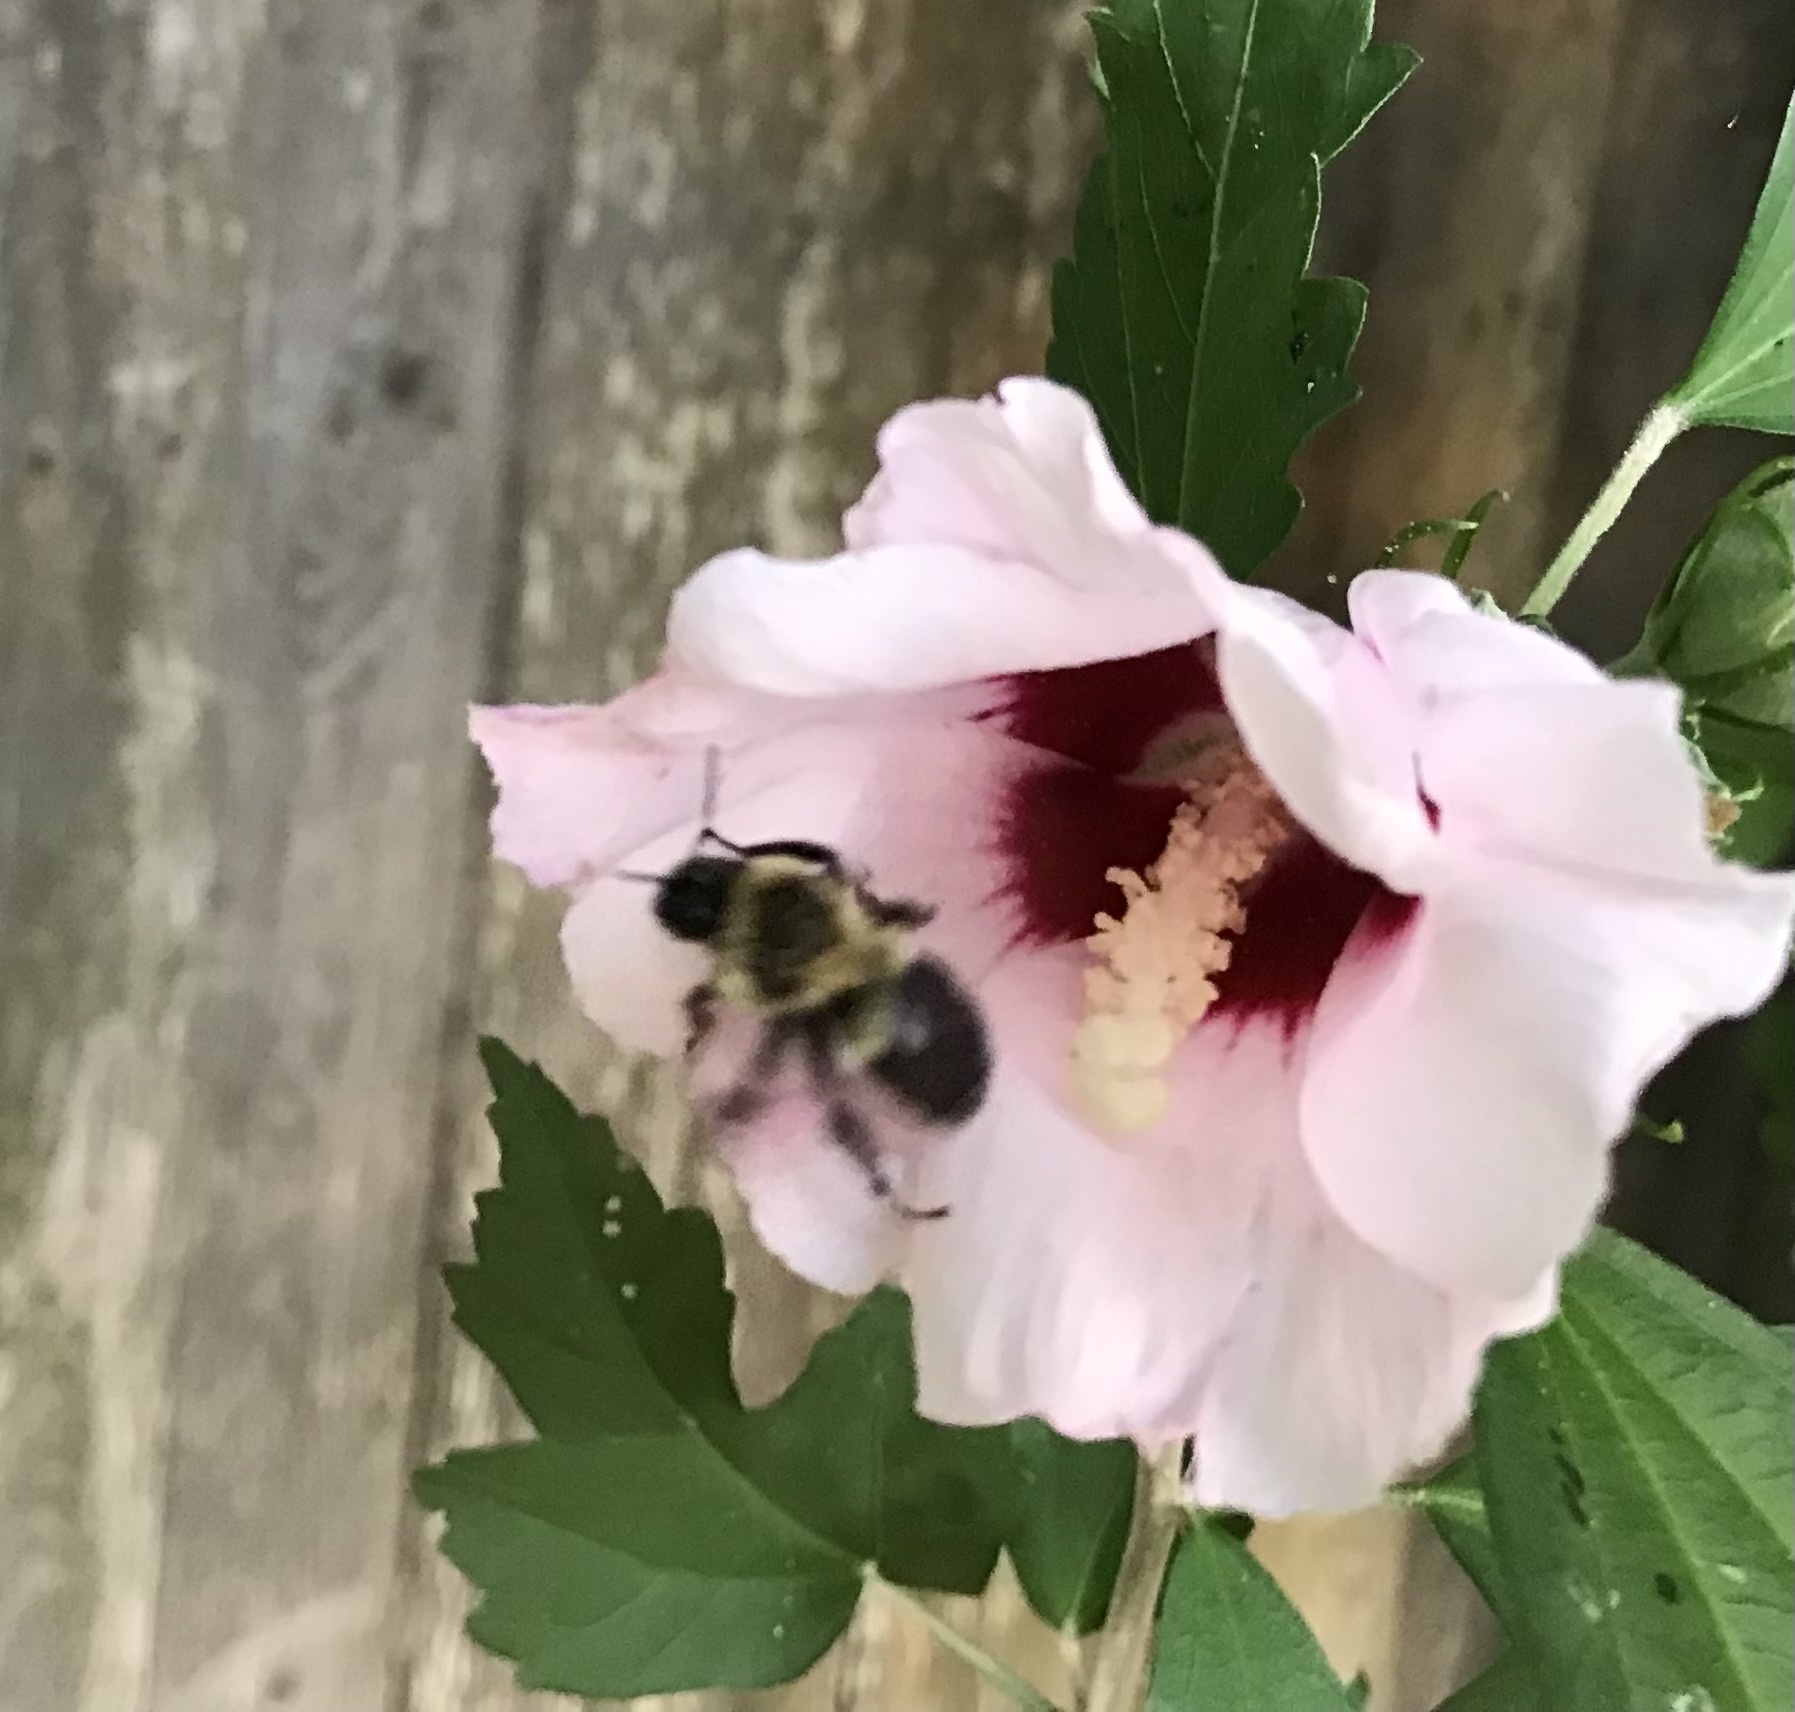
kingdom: Animalia
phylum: Arthropoda
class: Insecta
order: Hymenoptera
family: Apidae
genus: Bombus
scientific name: Bombus impatiens
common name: Common eastern bumble bee
